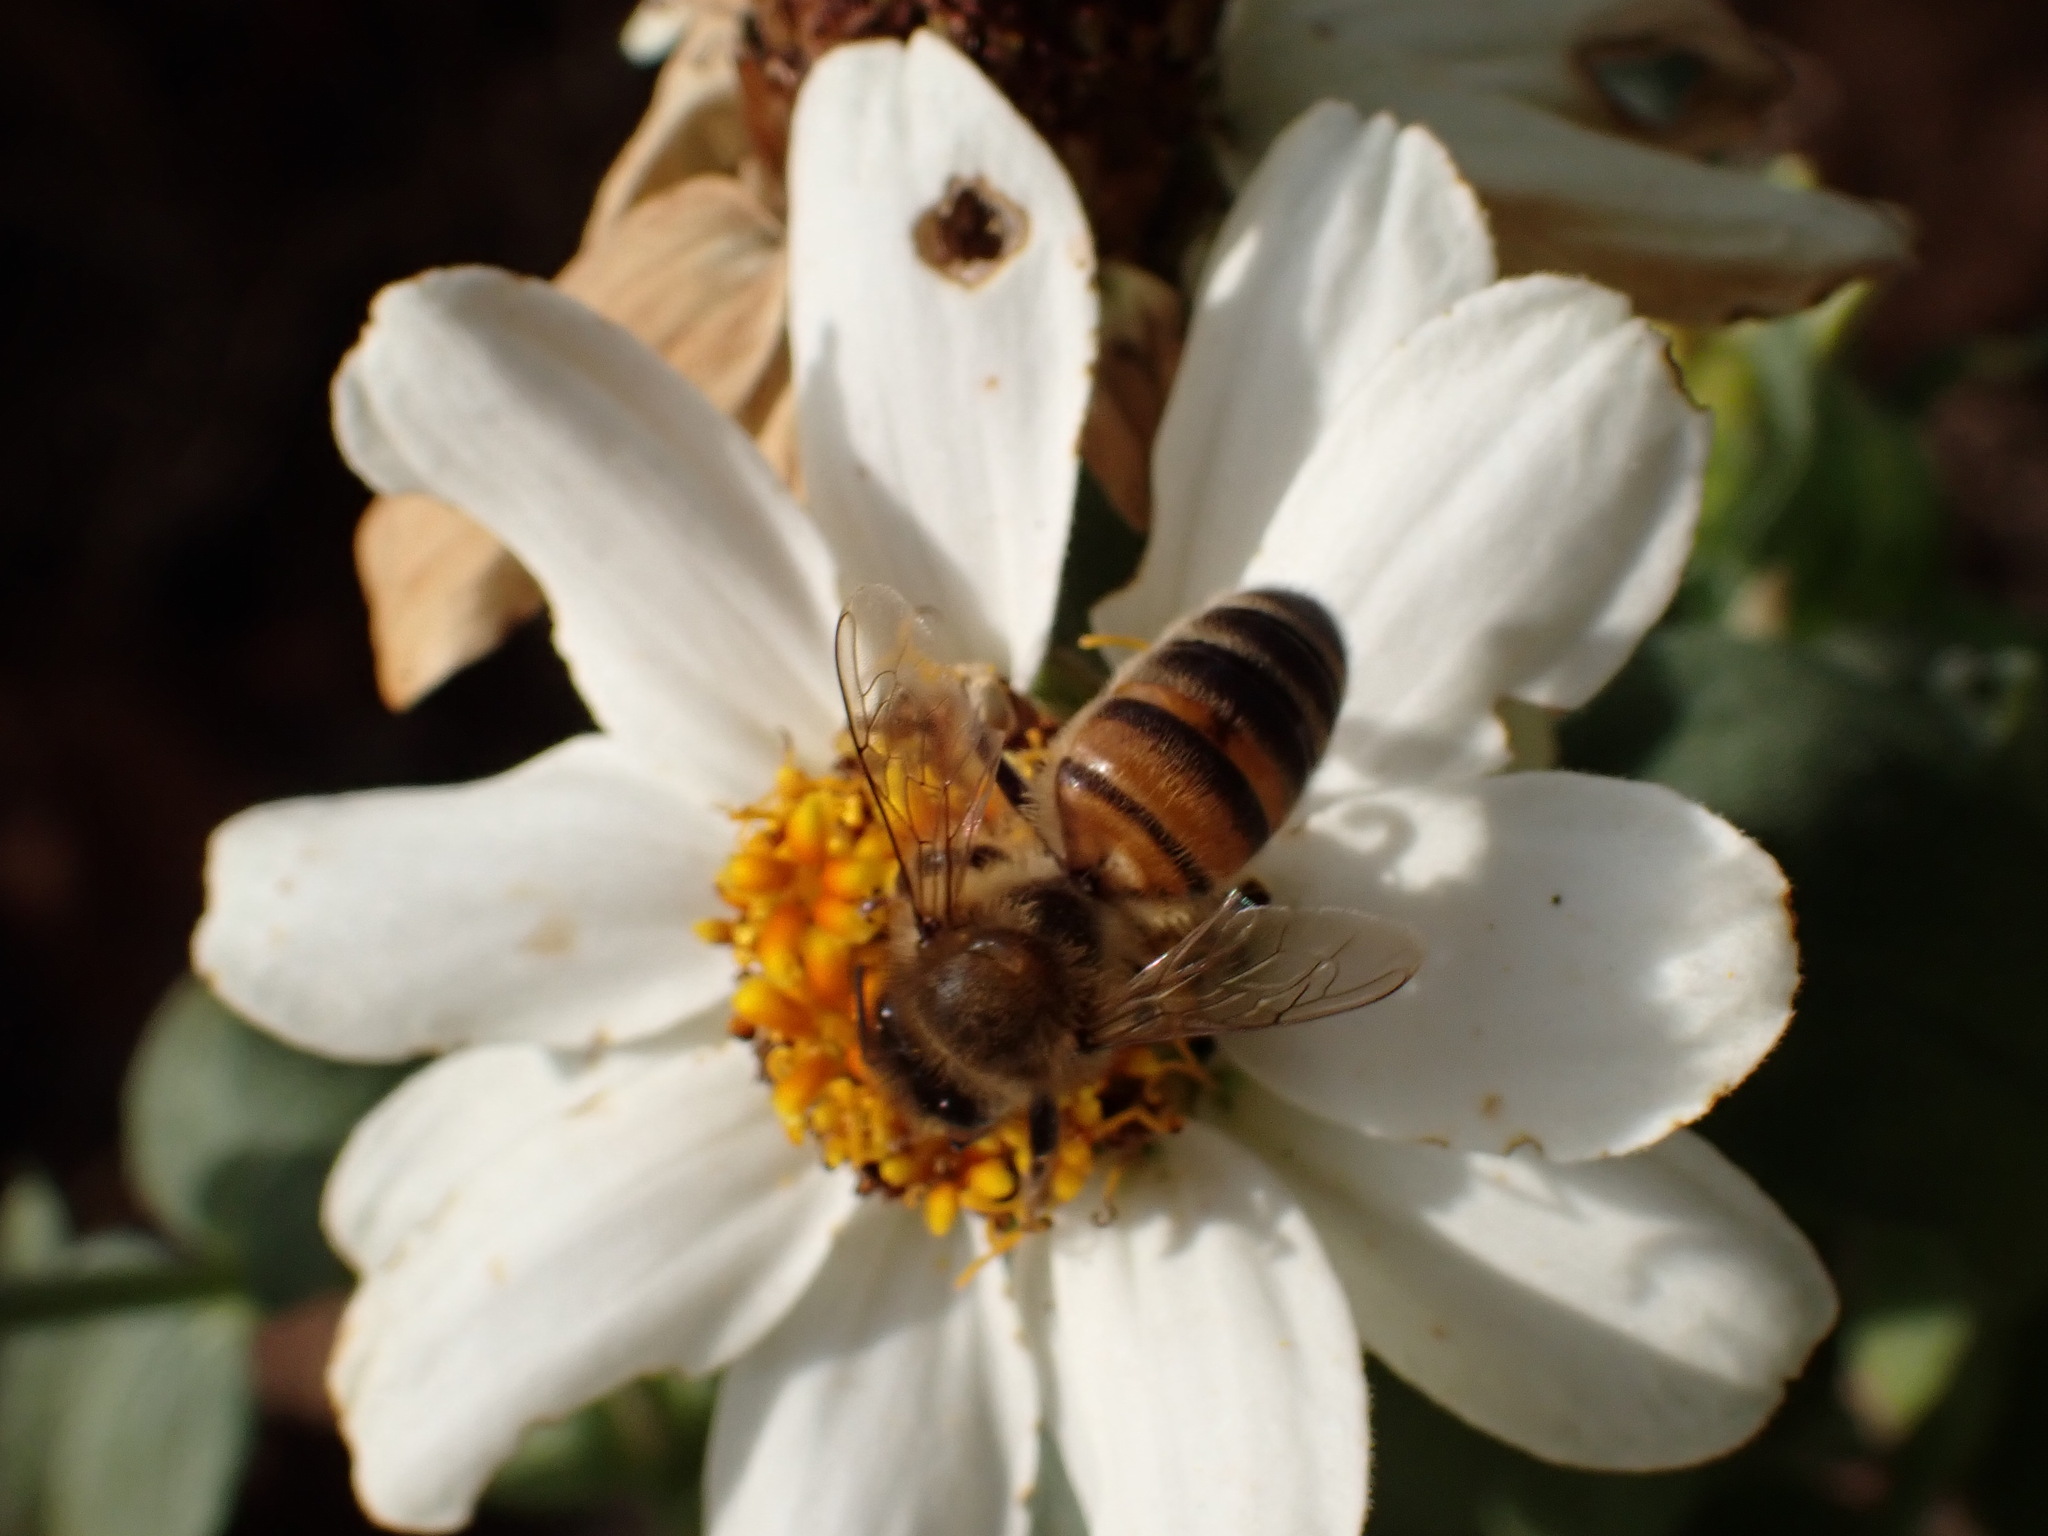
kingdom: Animalia
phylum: Arthropoda
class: Insecta
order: Hymenoptera
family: Apidae
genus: Apis
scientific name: Apis mellifera
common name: Honey bee
